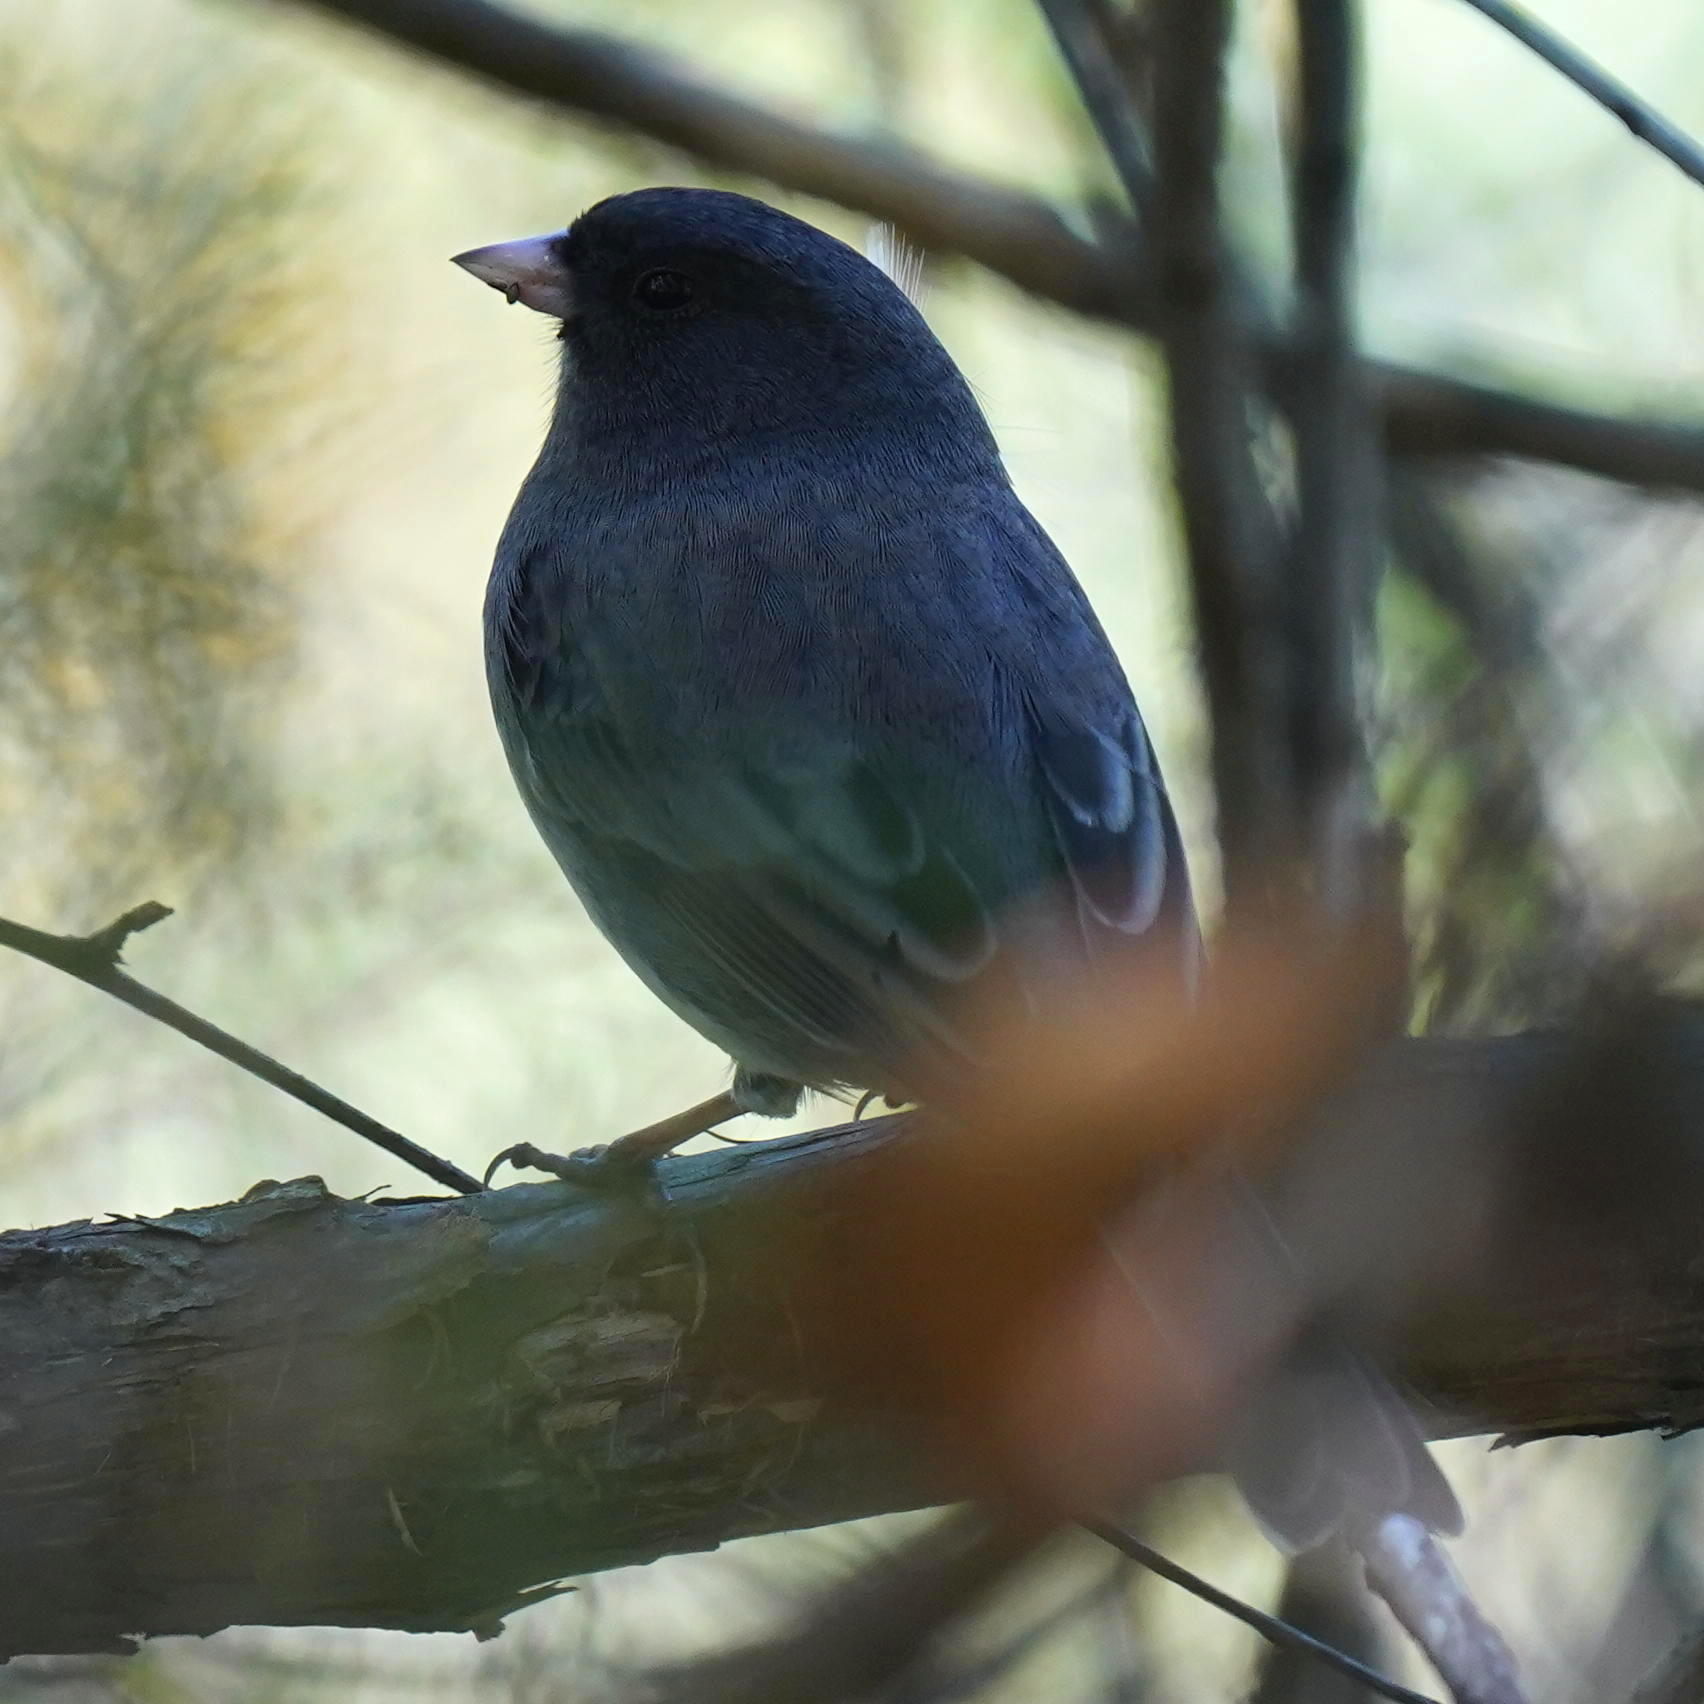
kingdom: Animalia
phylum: Chordata
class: Aves
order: Passeriformes
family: Passerellidae
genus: Junco
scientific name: Junco hyemalis
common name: Dark-eyed junco
